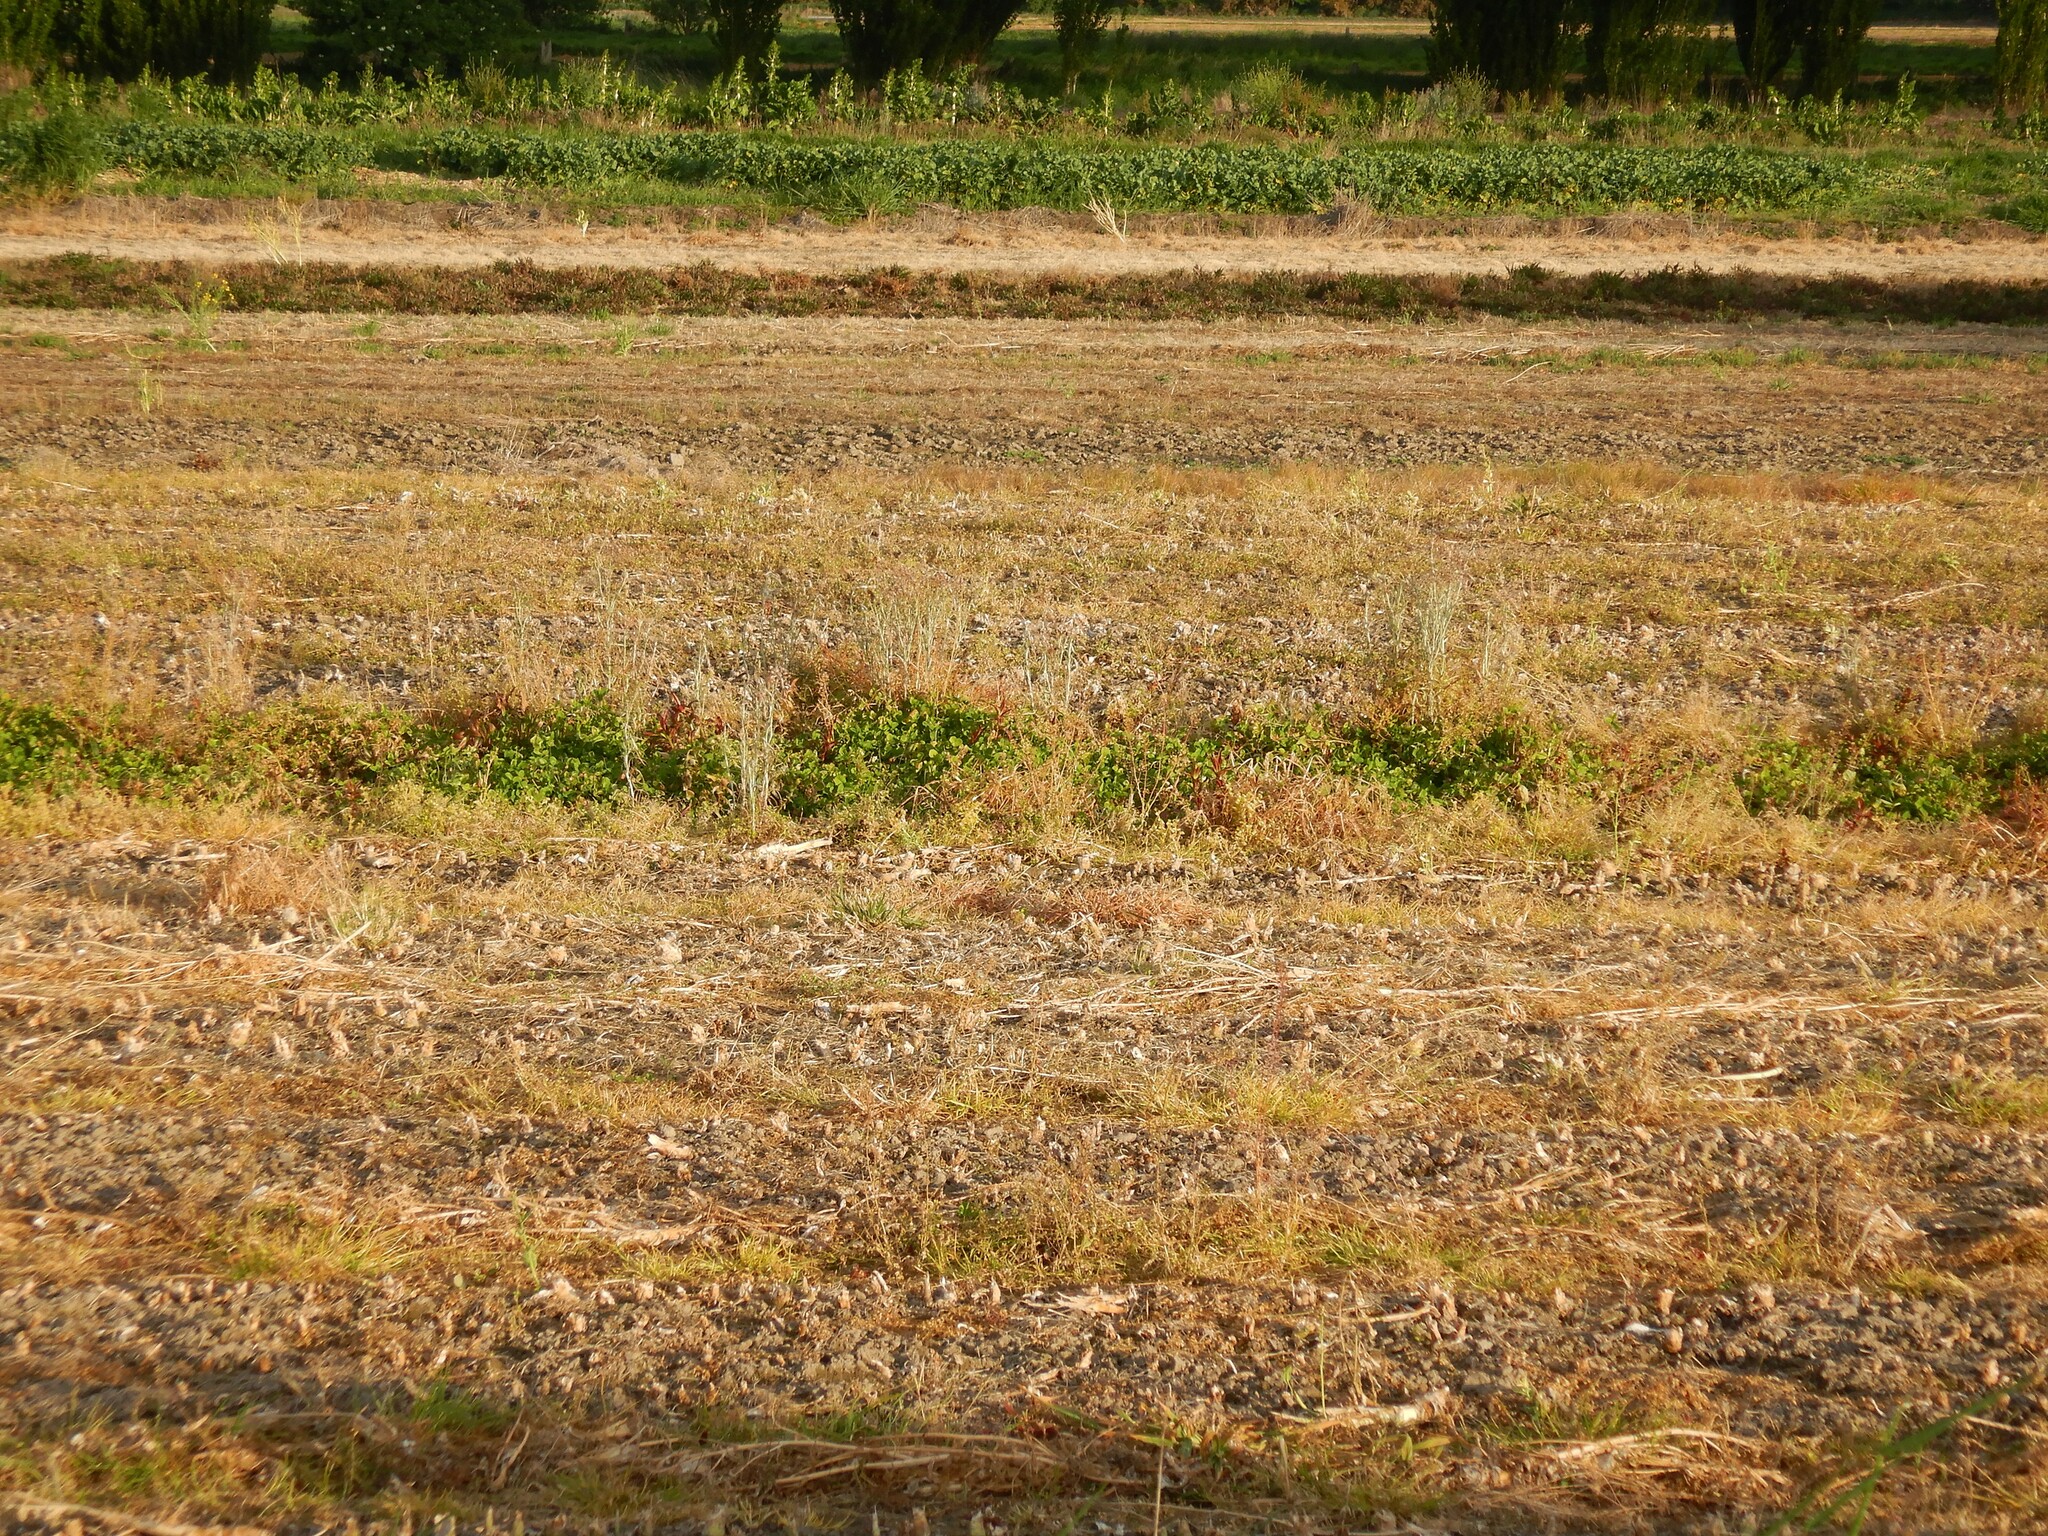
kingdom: Plantae
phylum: Tracheophyta
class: Magnoliopsida
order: Asterales
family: Asteraceae
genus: Senecio
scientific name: Senecio quadridentatus
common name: Cotton fireweed
